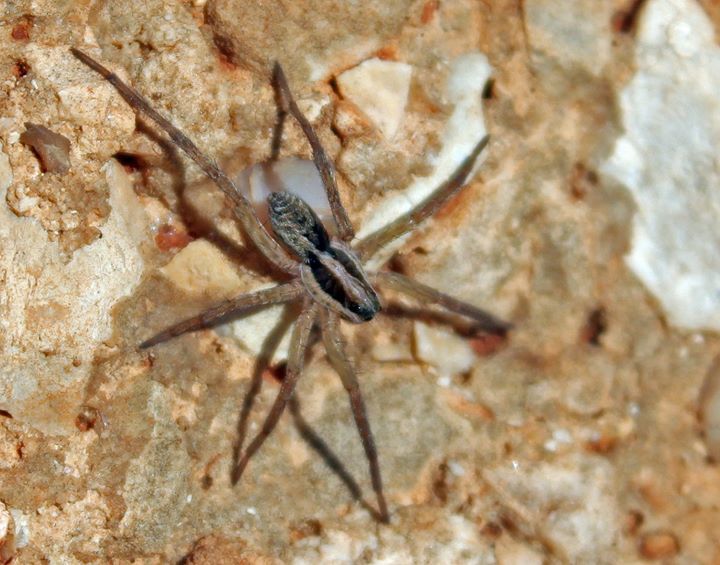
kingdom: Animalia
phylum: Arthropoda
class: Arachnida
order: Araneae
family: Lycosidae
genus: Hogna
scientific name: Hogna radiata
